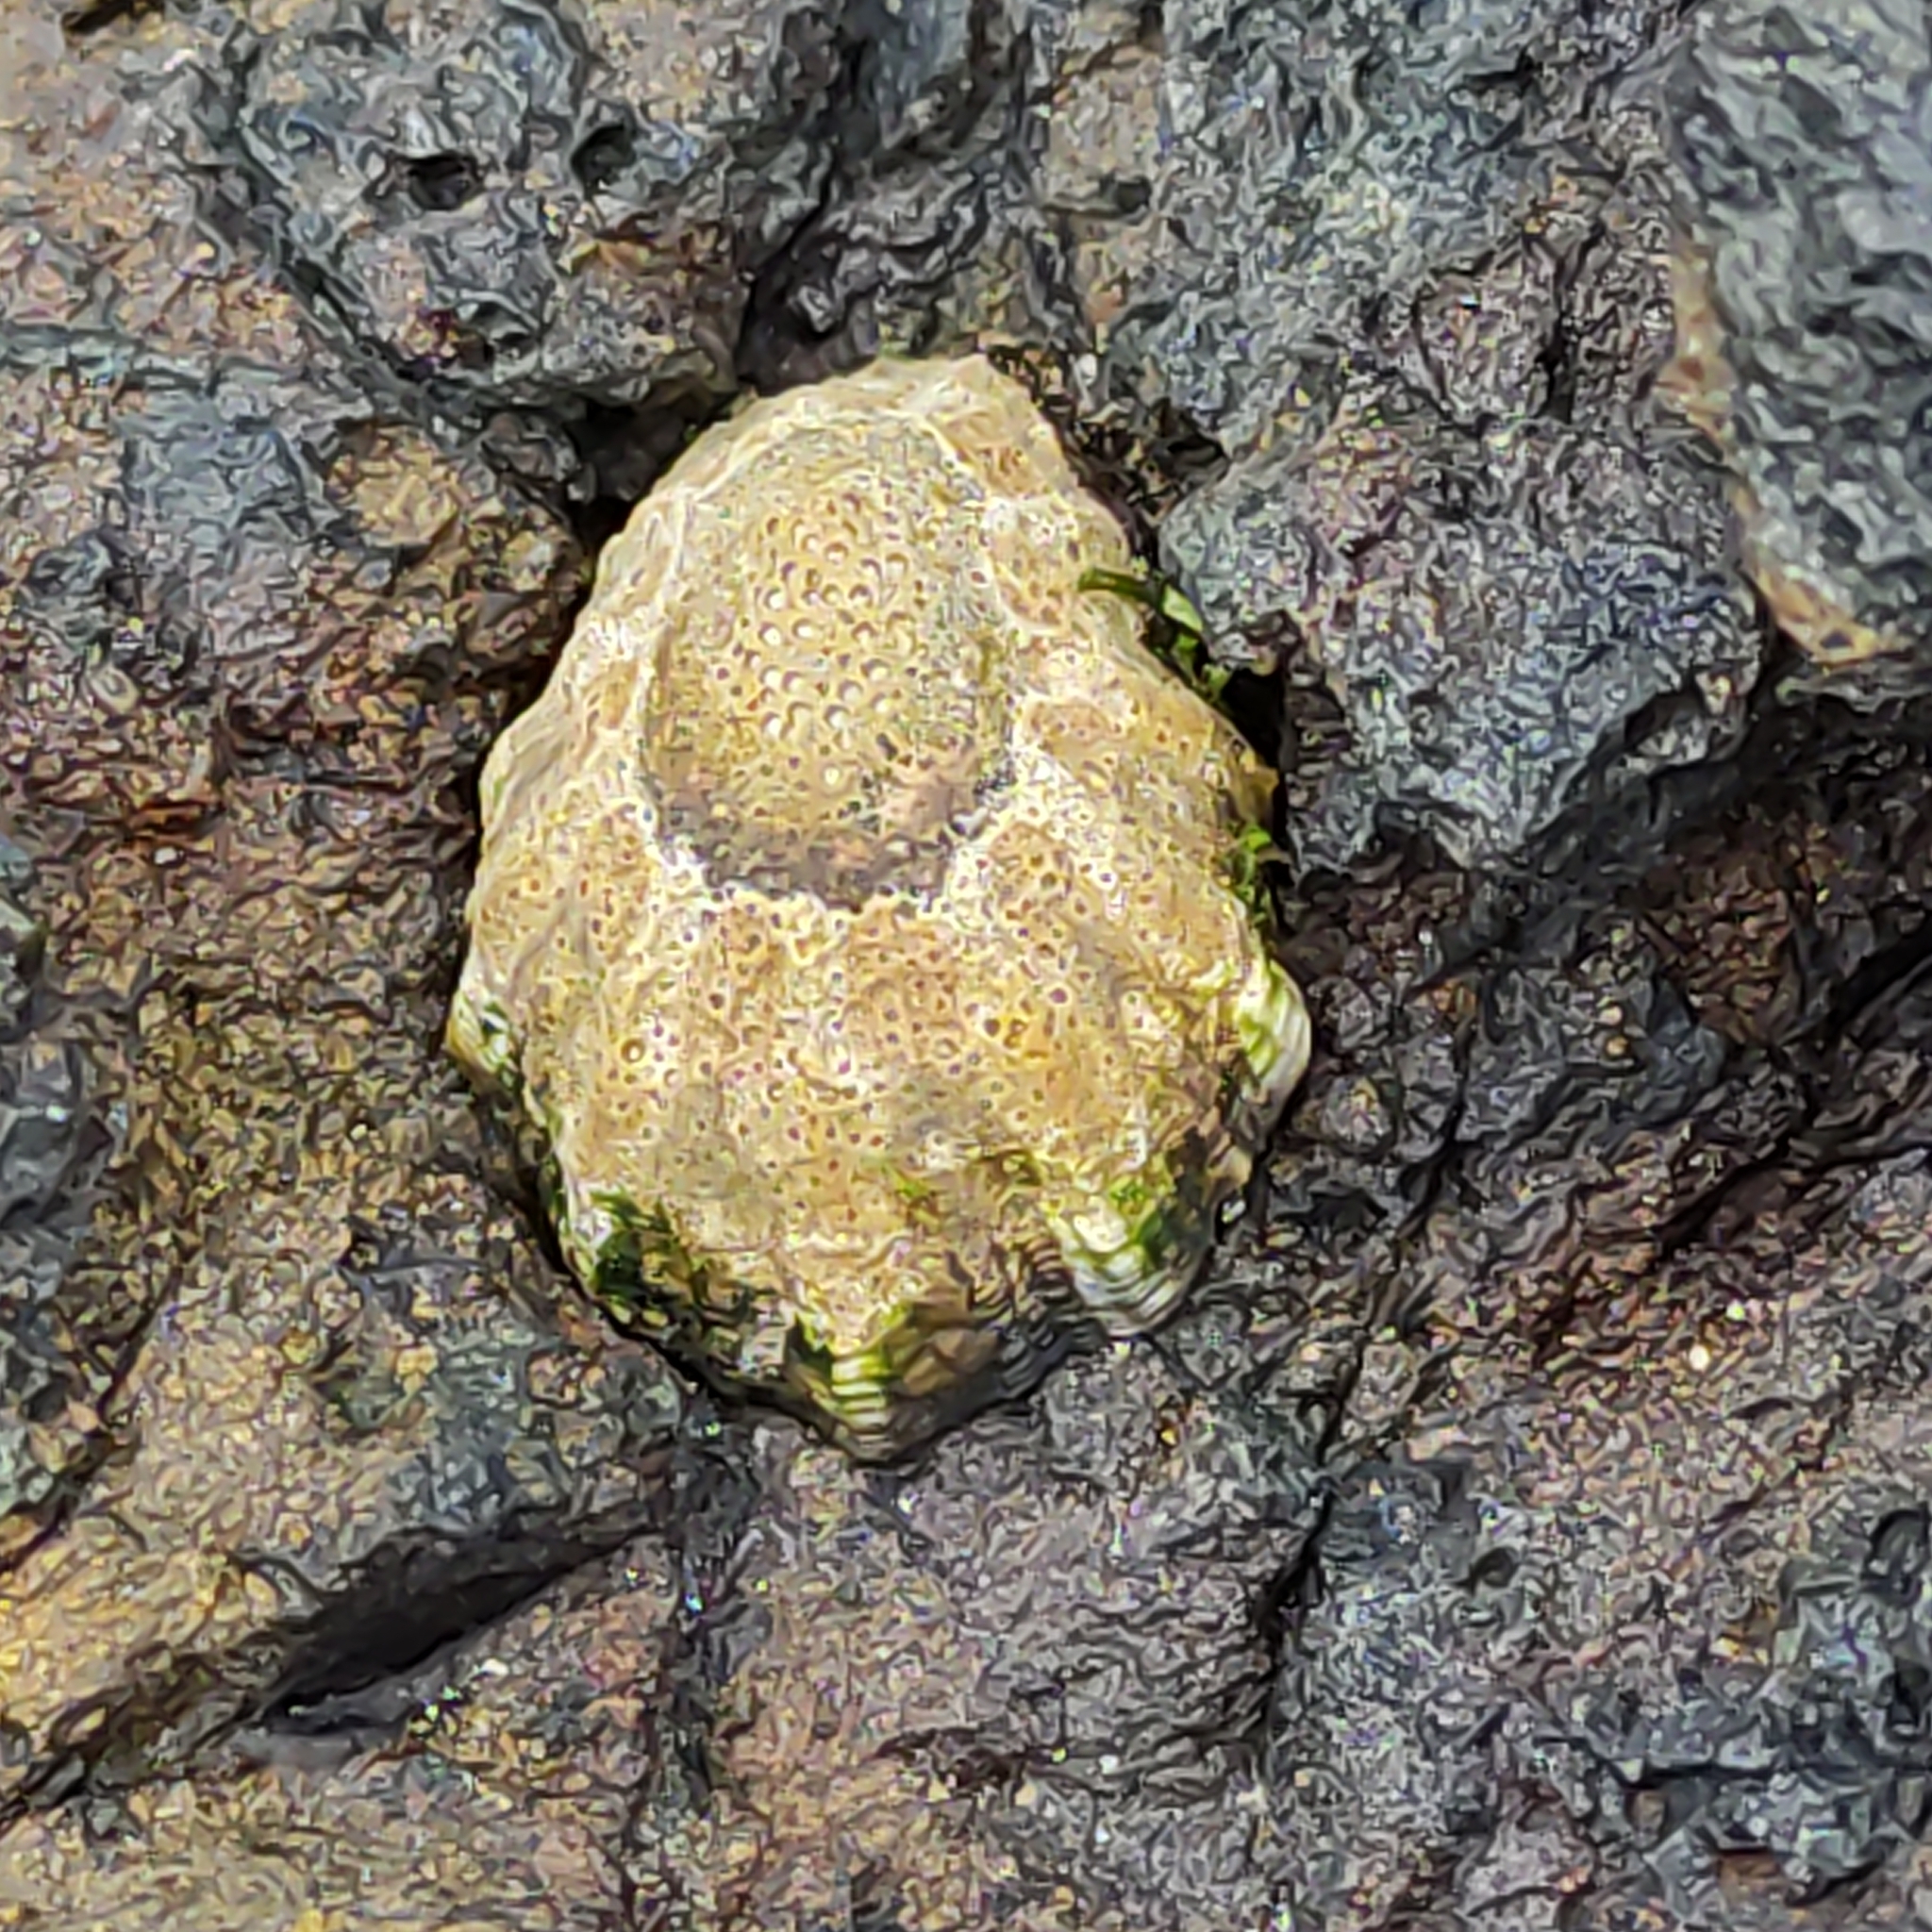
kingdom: Animalia
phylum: Arthropoda
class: Maxillopoda
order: Sessilia
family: Tetraclitidae
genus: Epopella
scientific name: Epopella plicata
